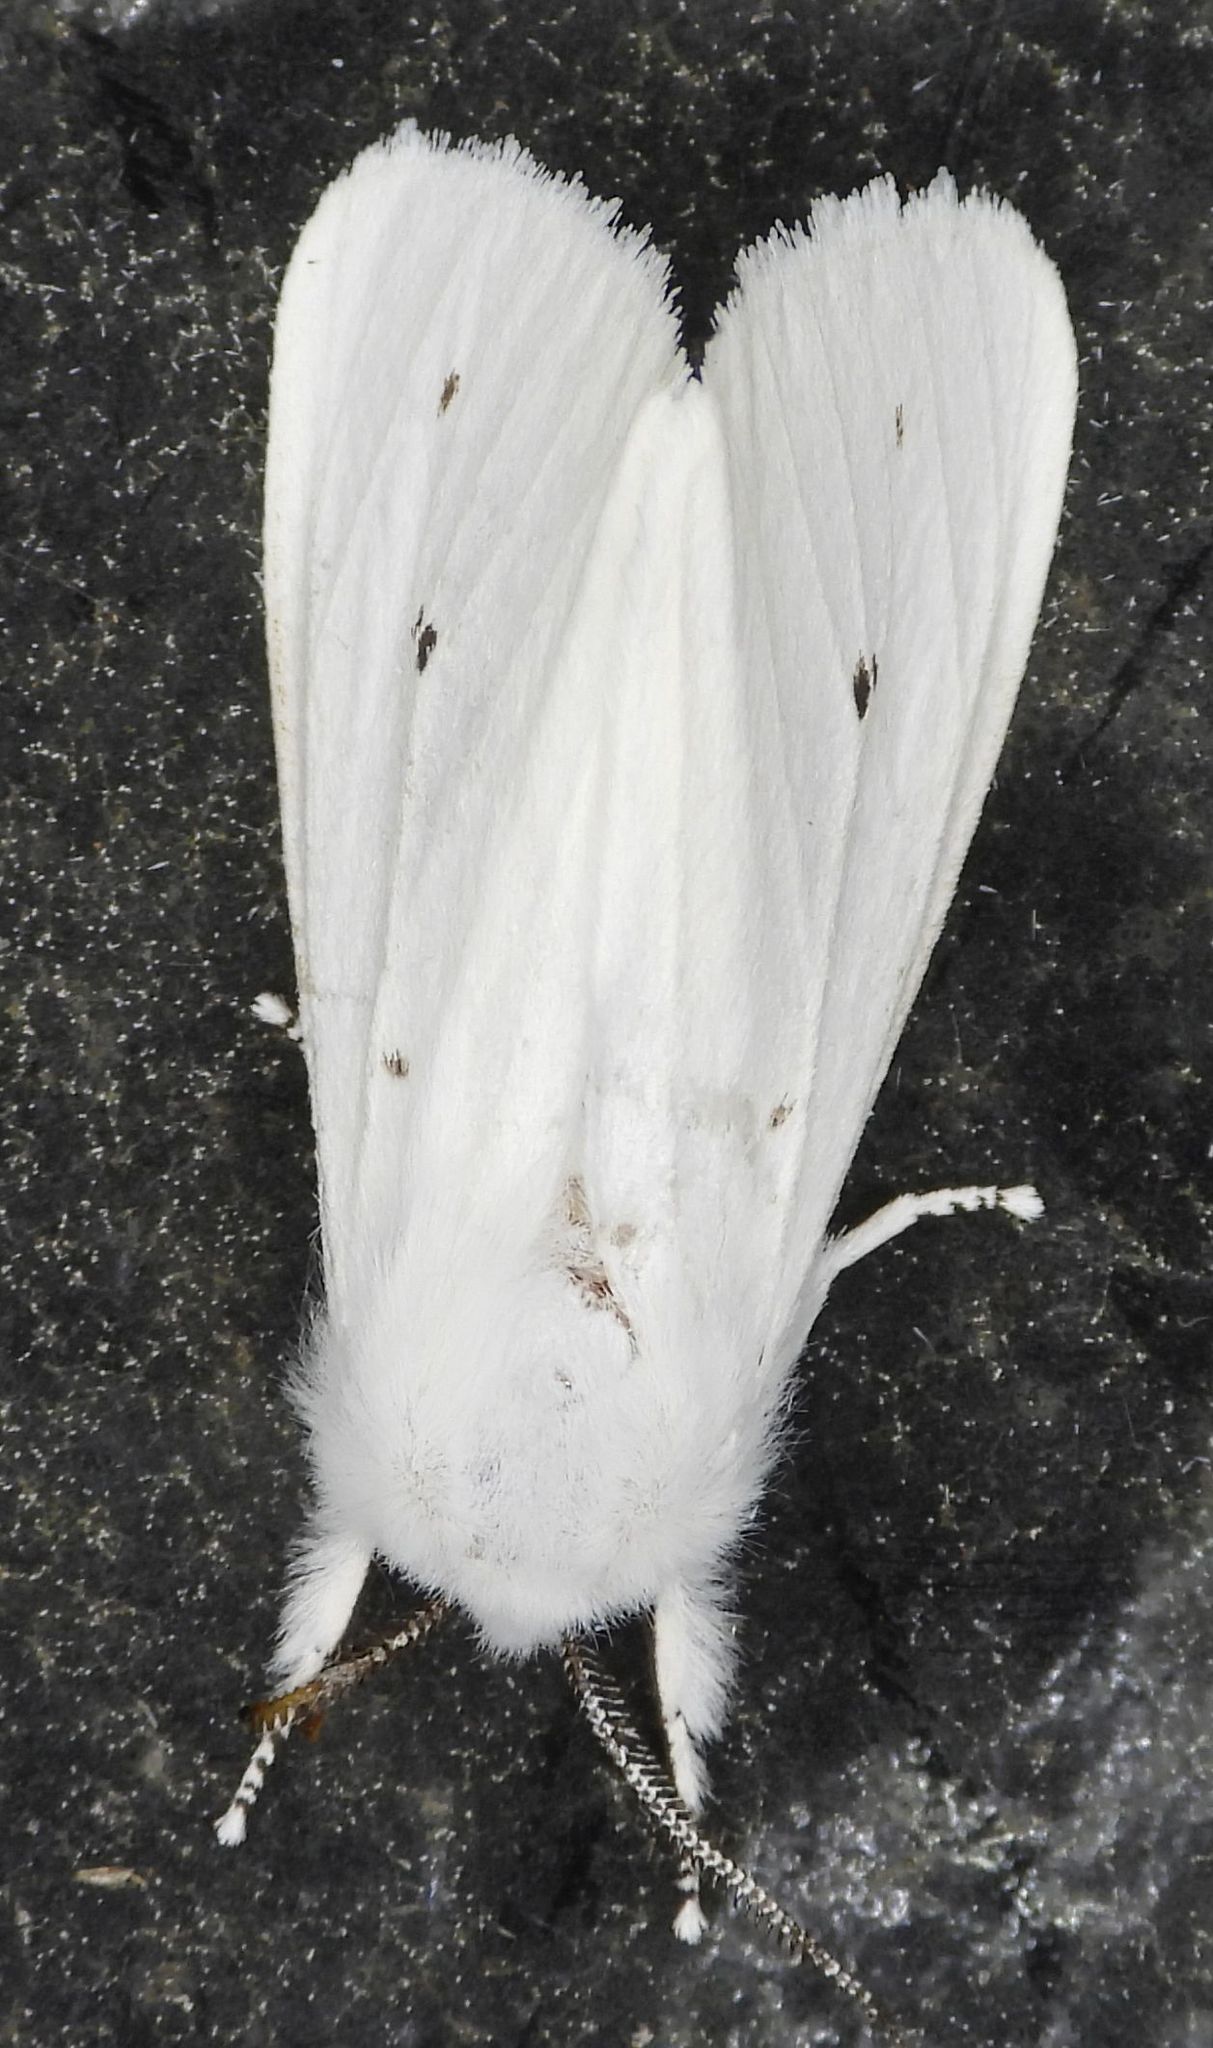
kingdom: Animalia
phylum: Arthropoda
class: Insecta
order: Lepidoptera
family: Erebidae
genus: Spilosoma
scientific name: Spilosoma virginica
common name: Virginia tiger moth
